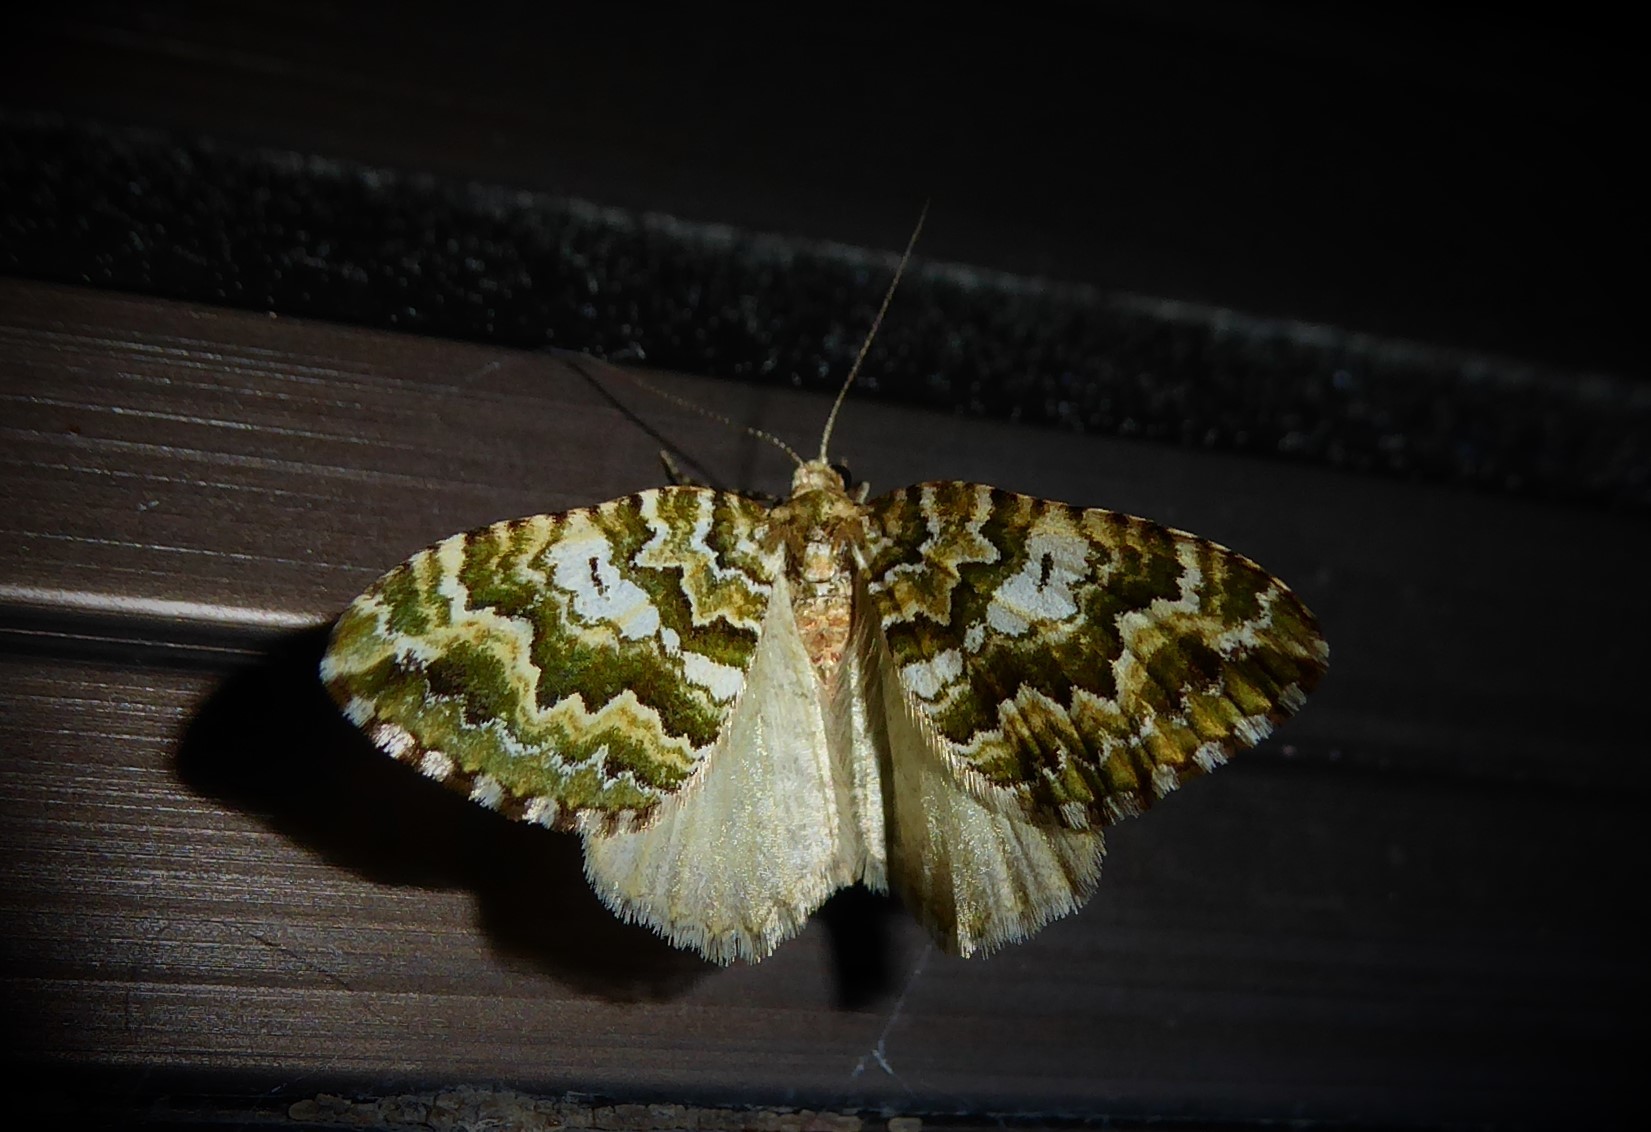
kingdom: Animalia
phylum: Arthropoda
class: Insecta
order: Lepidoptera
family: Geometridae
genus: Asaphodes
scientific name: Asaphodes beata
